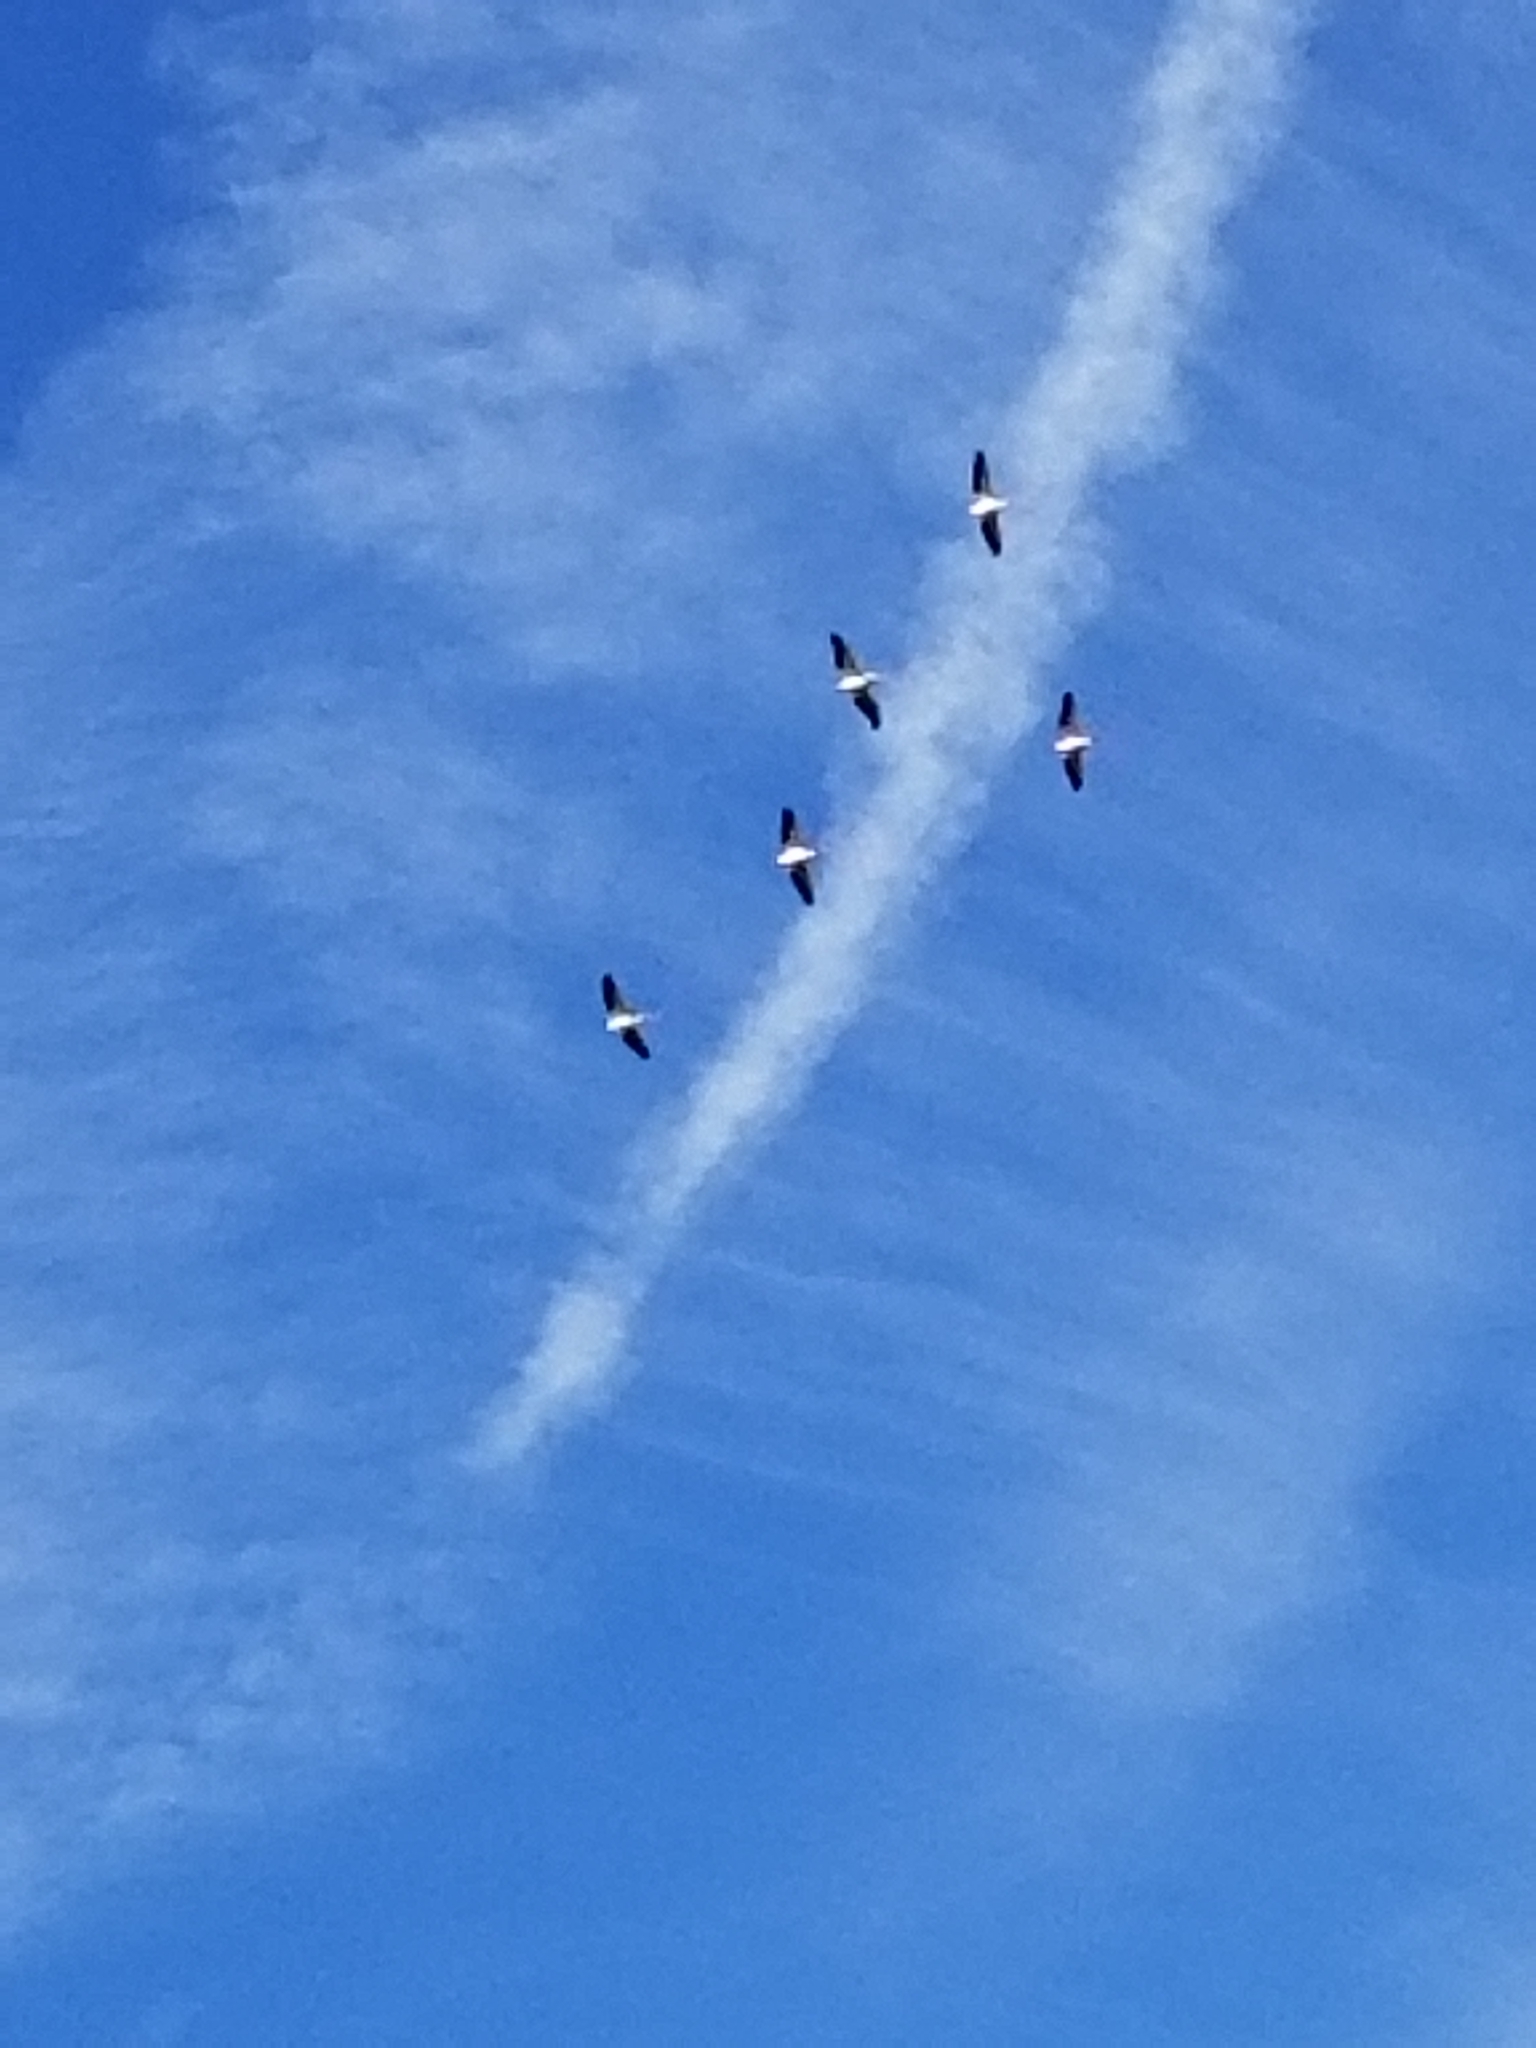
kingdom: Animalia
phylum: Chordata
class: Aves
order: Pelecaniformes
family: Pelecanidae
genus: Pelecanus
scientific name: Pelecanus erythrorhynchos
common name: American white pelican
